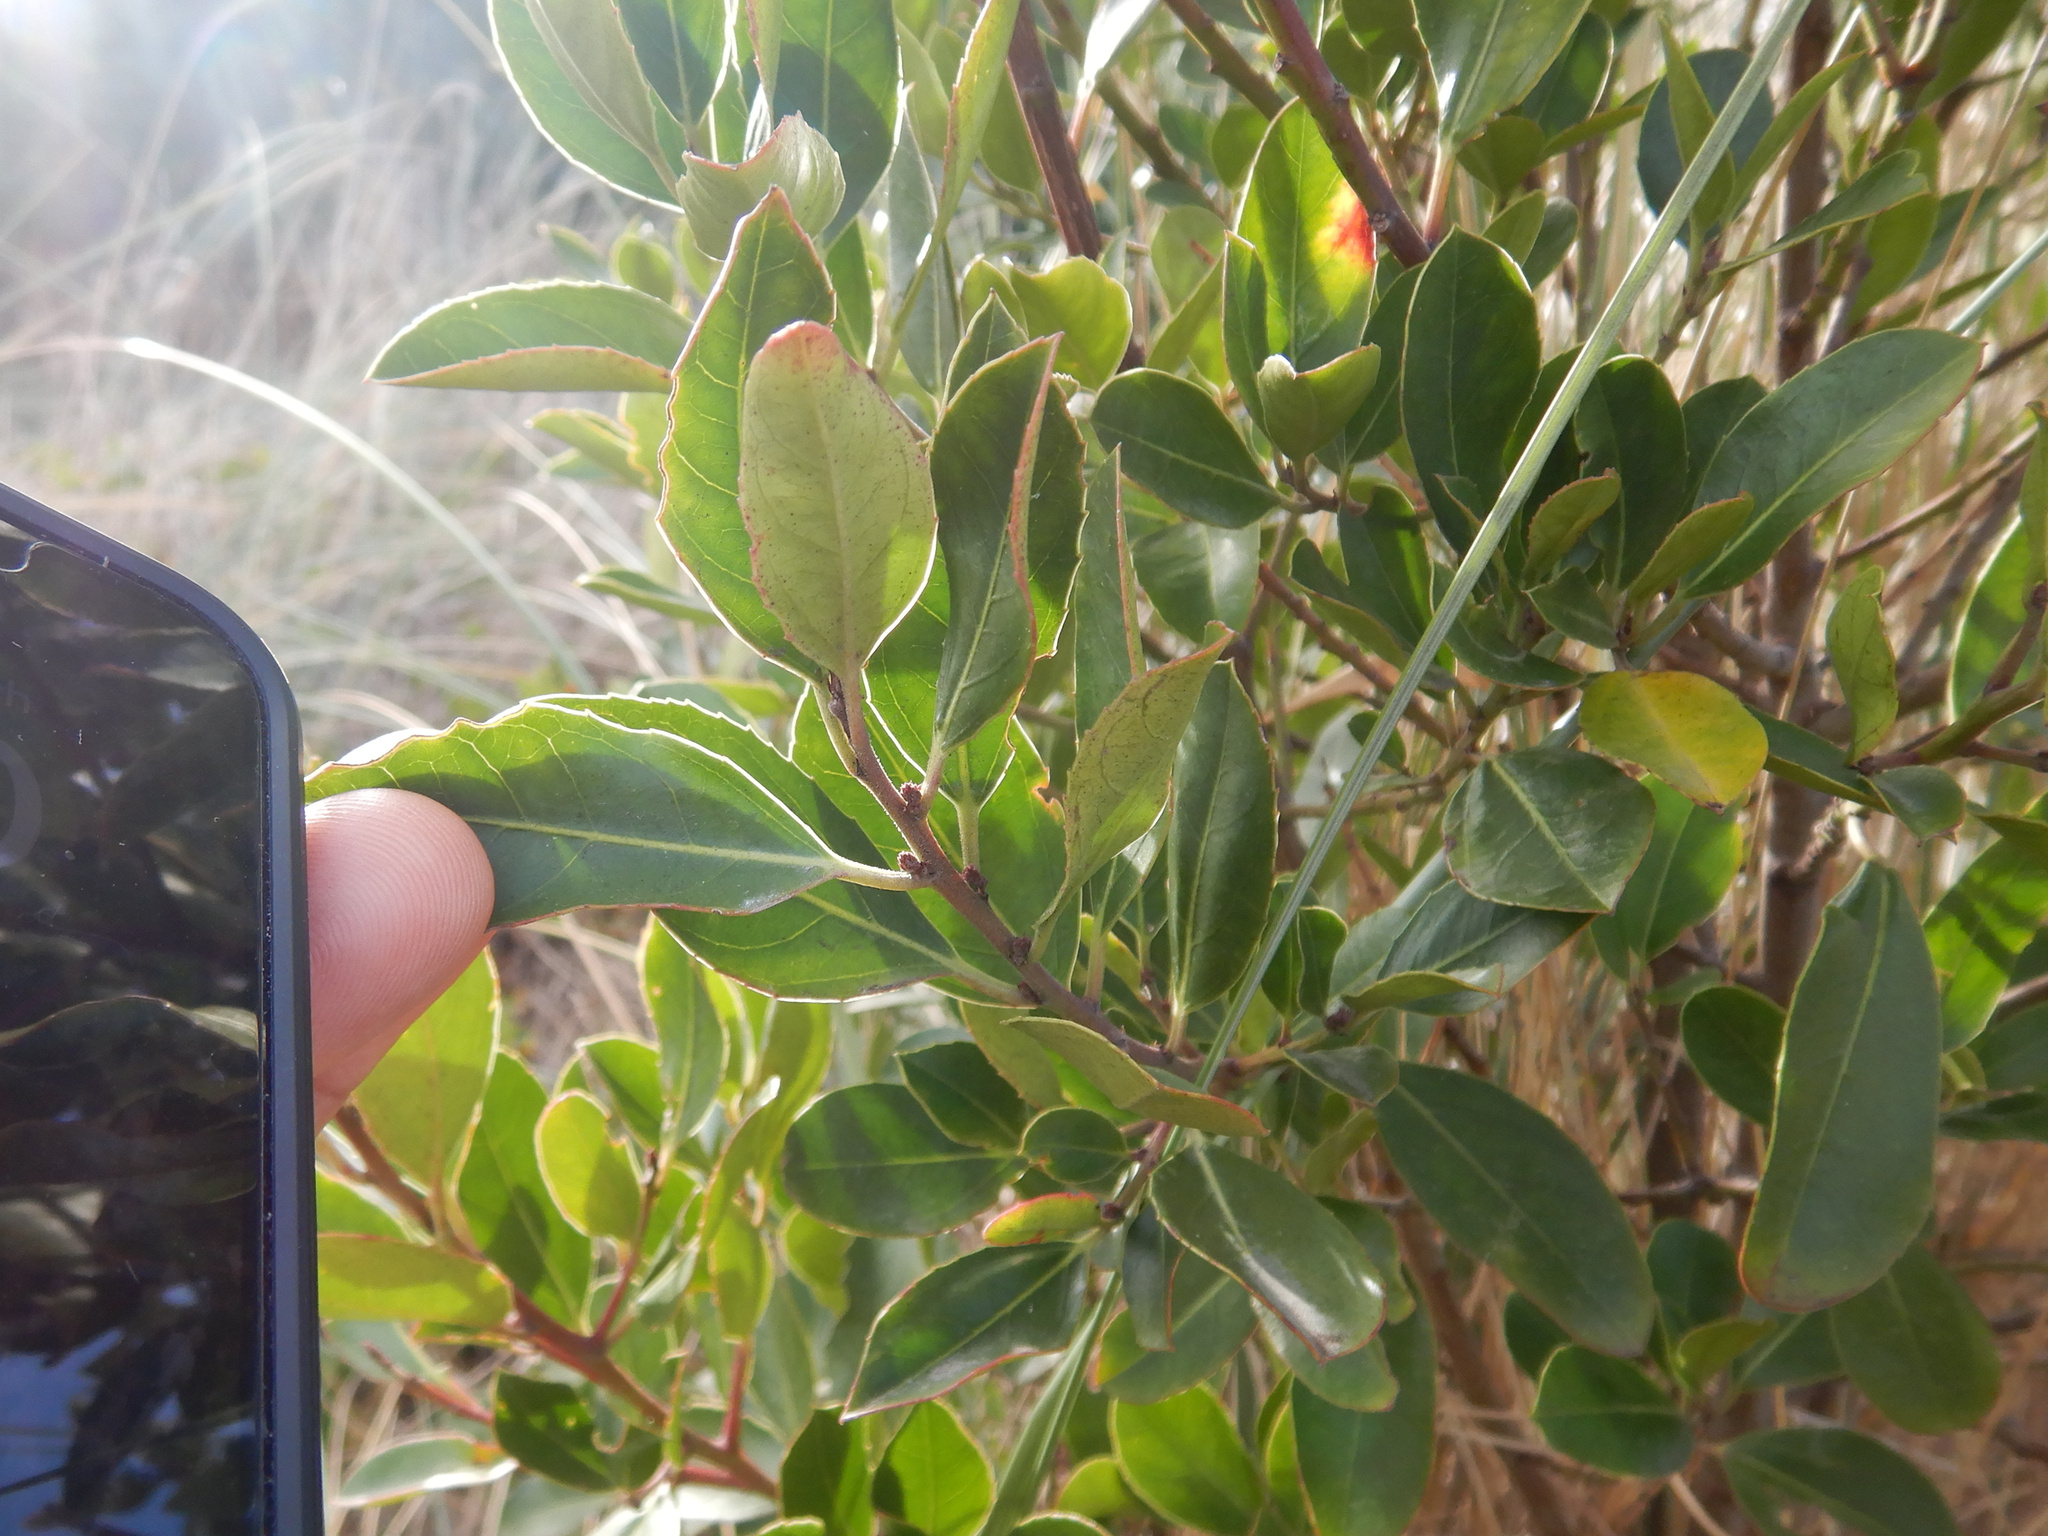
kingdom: Plantae
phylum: Tracheophyta
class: Magnoliopsida
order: Rosales
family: Rhamnaceae
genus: Rhamnus
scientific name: Rhamnus alaternus
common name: Mediterranean buckthorn
